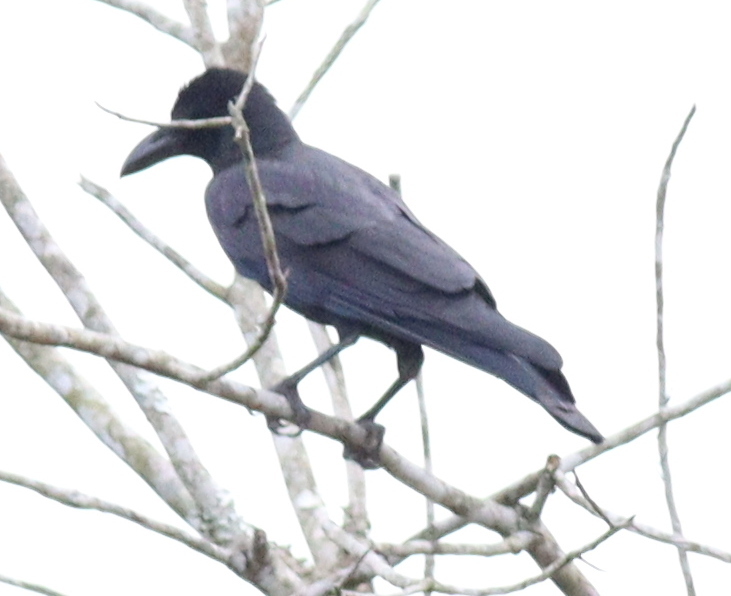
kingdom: Animalia
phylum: Chordata
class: Aves
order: Passeriformes
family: Corvidae
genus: Corvus
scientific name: Corvus macrorhynchos
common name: Large-billed crow
